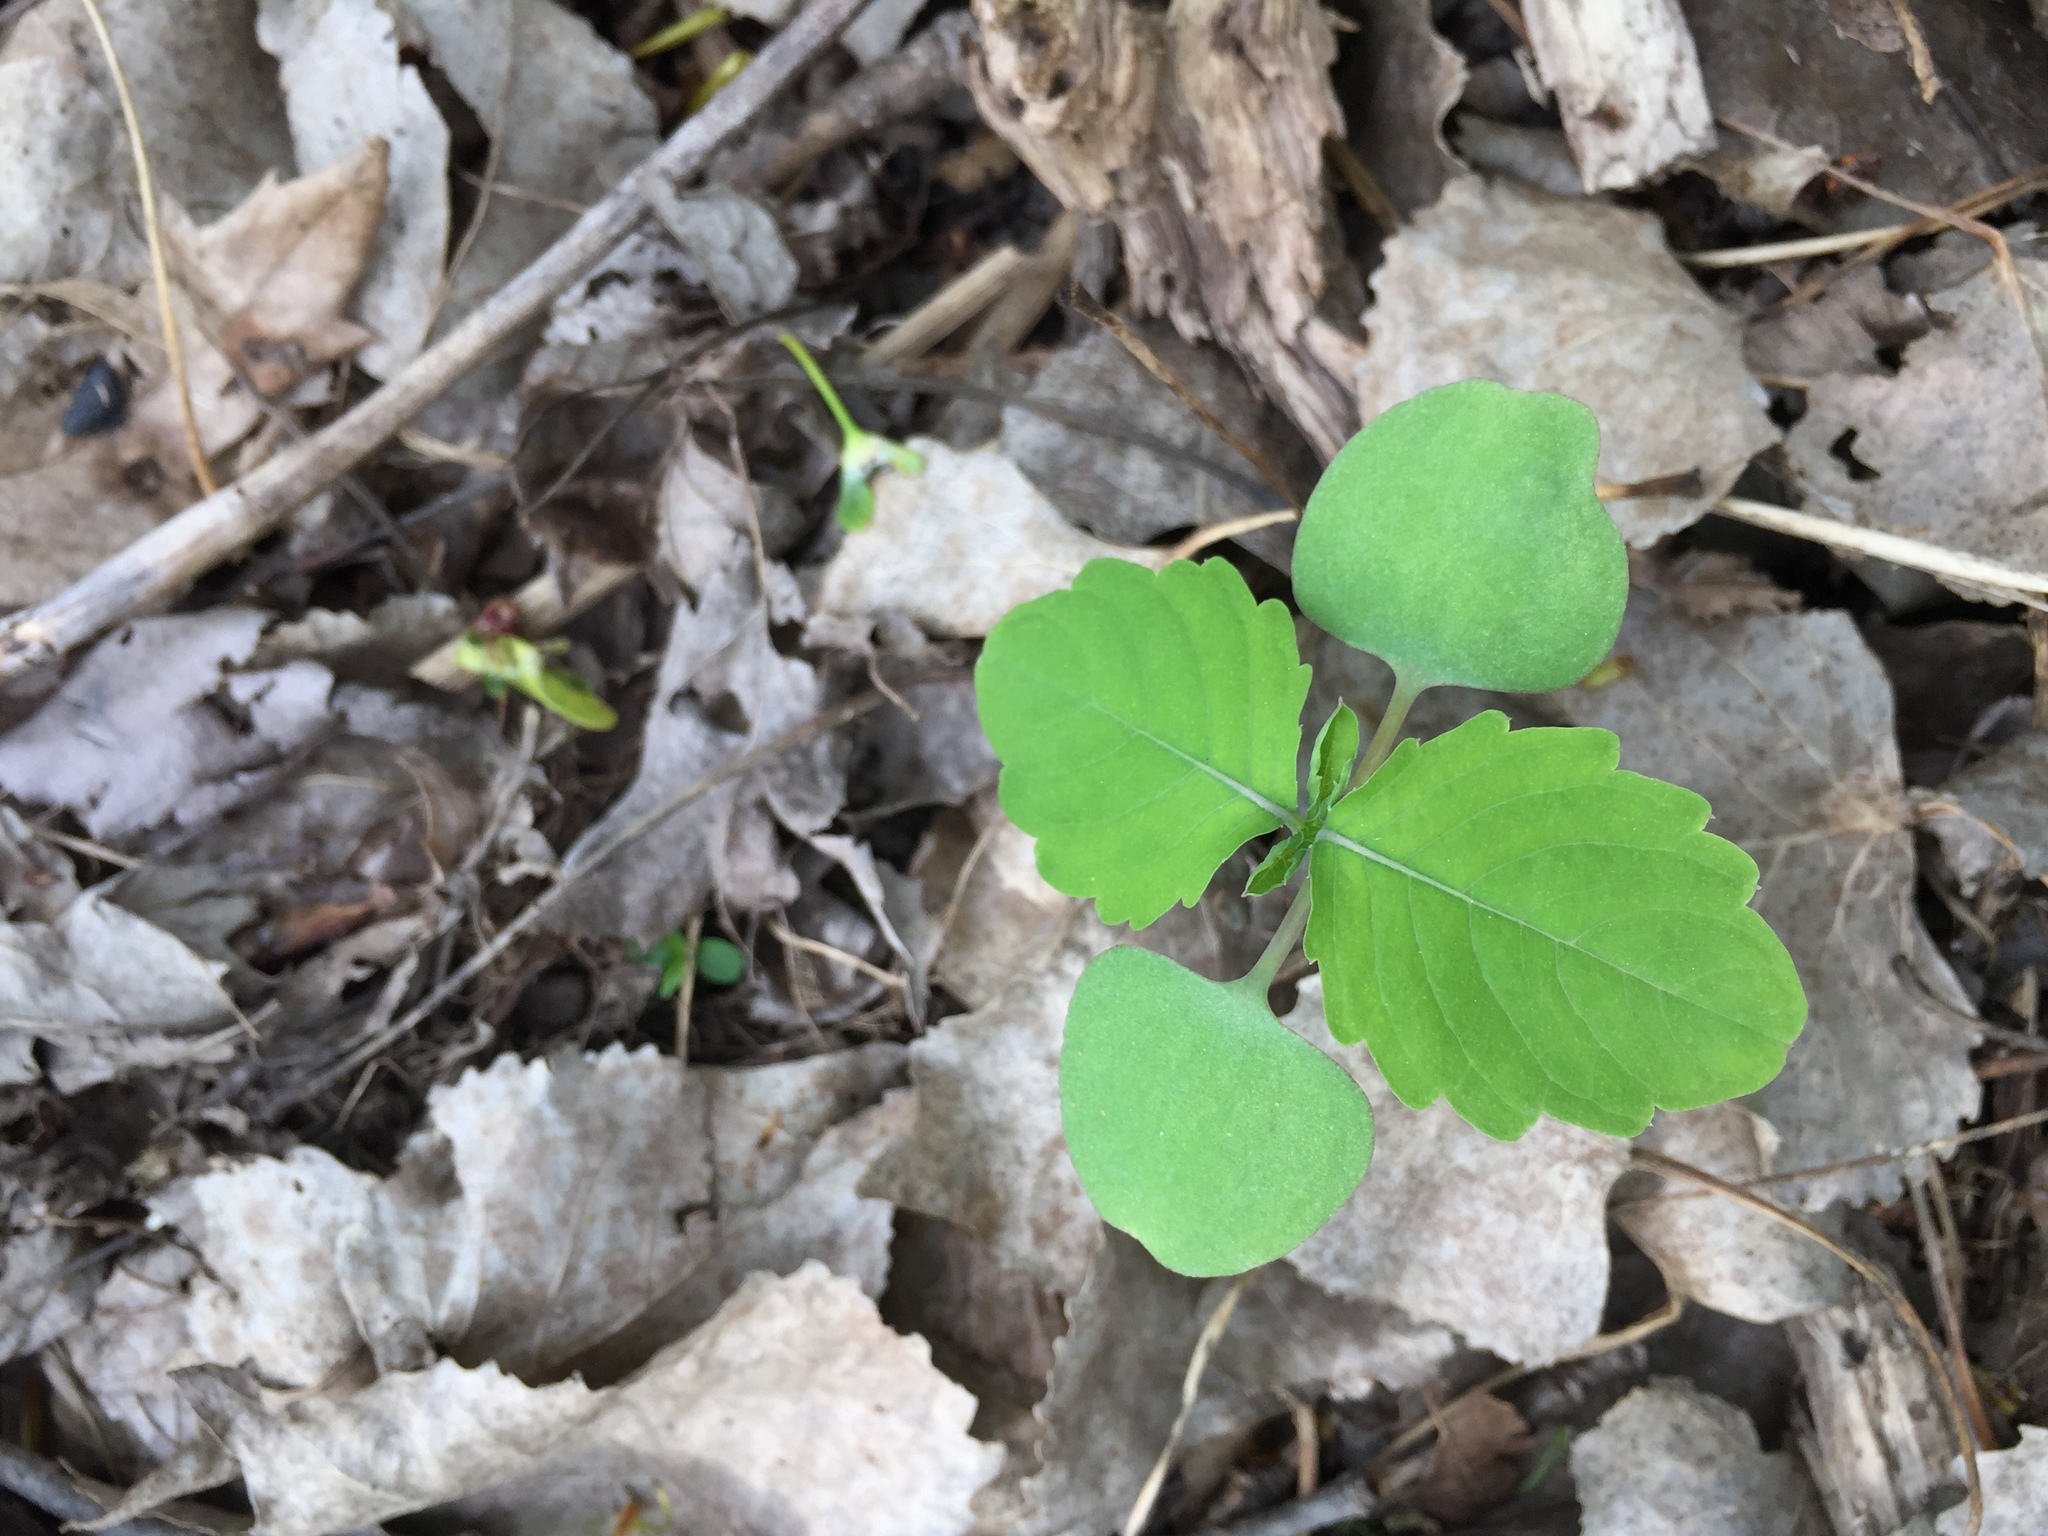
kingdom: Plantae
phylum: Tracheophyta
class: Magnoliopsida
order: Ericales
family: Balsaminaceae
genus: Impatiens
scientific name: Impatiens capensis
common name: Orange balsam
